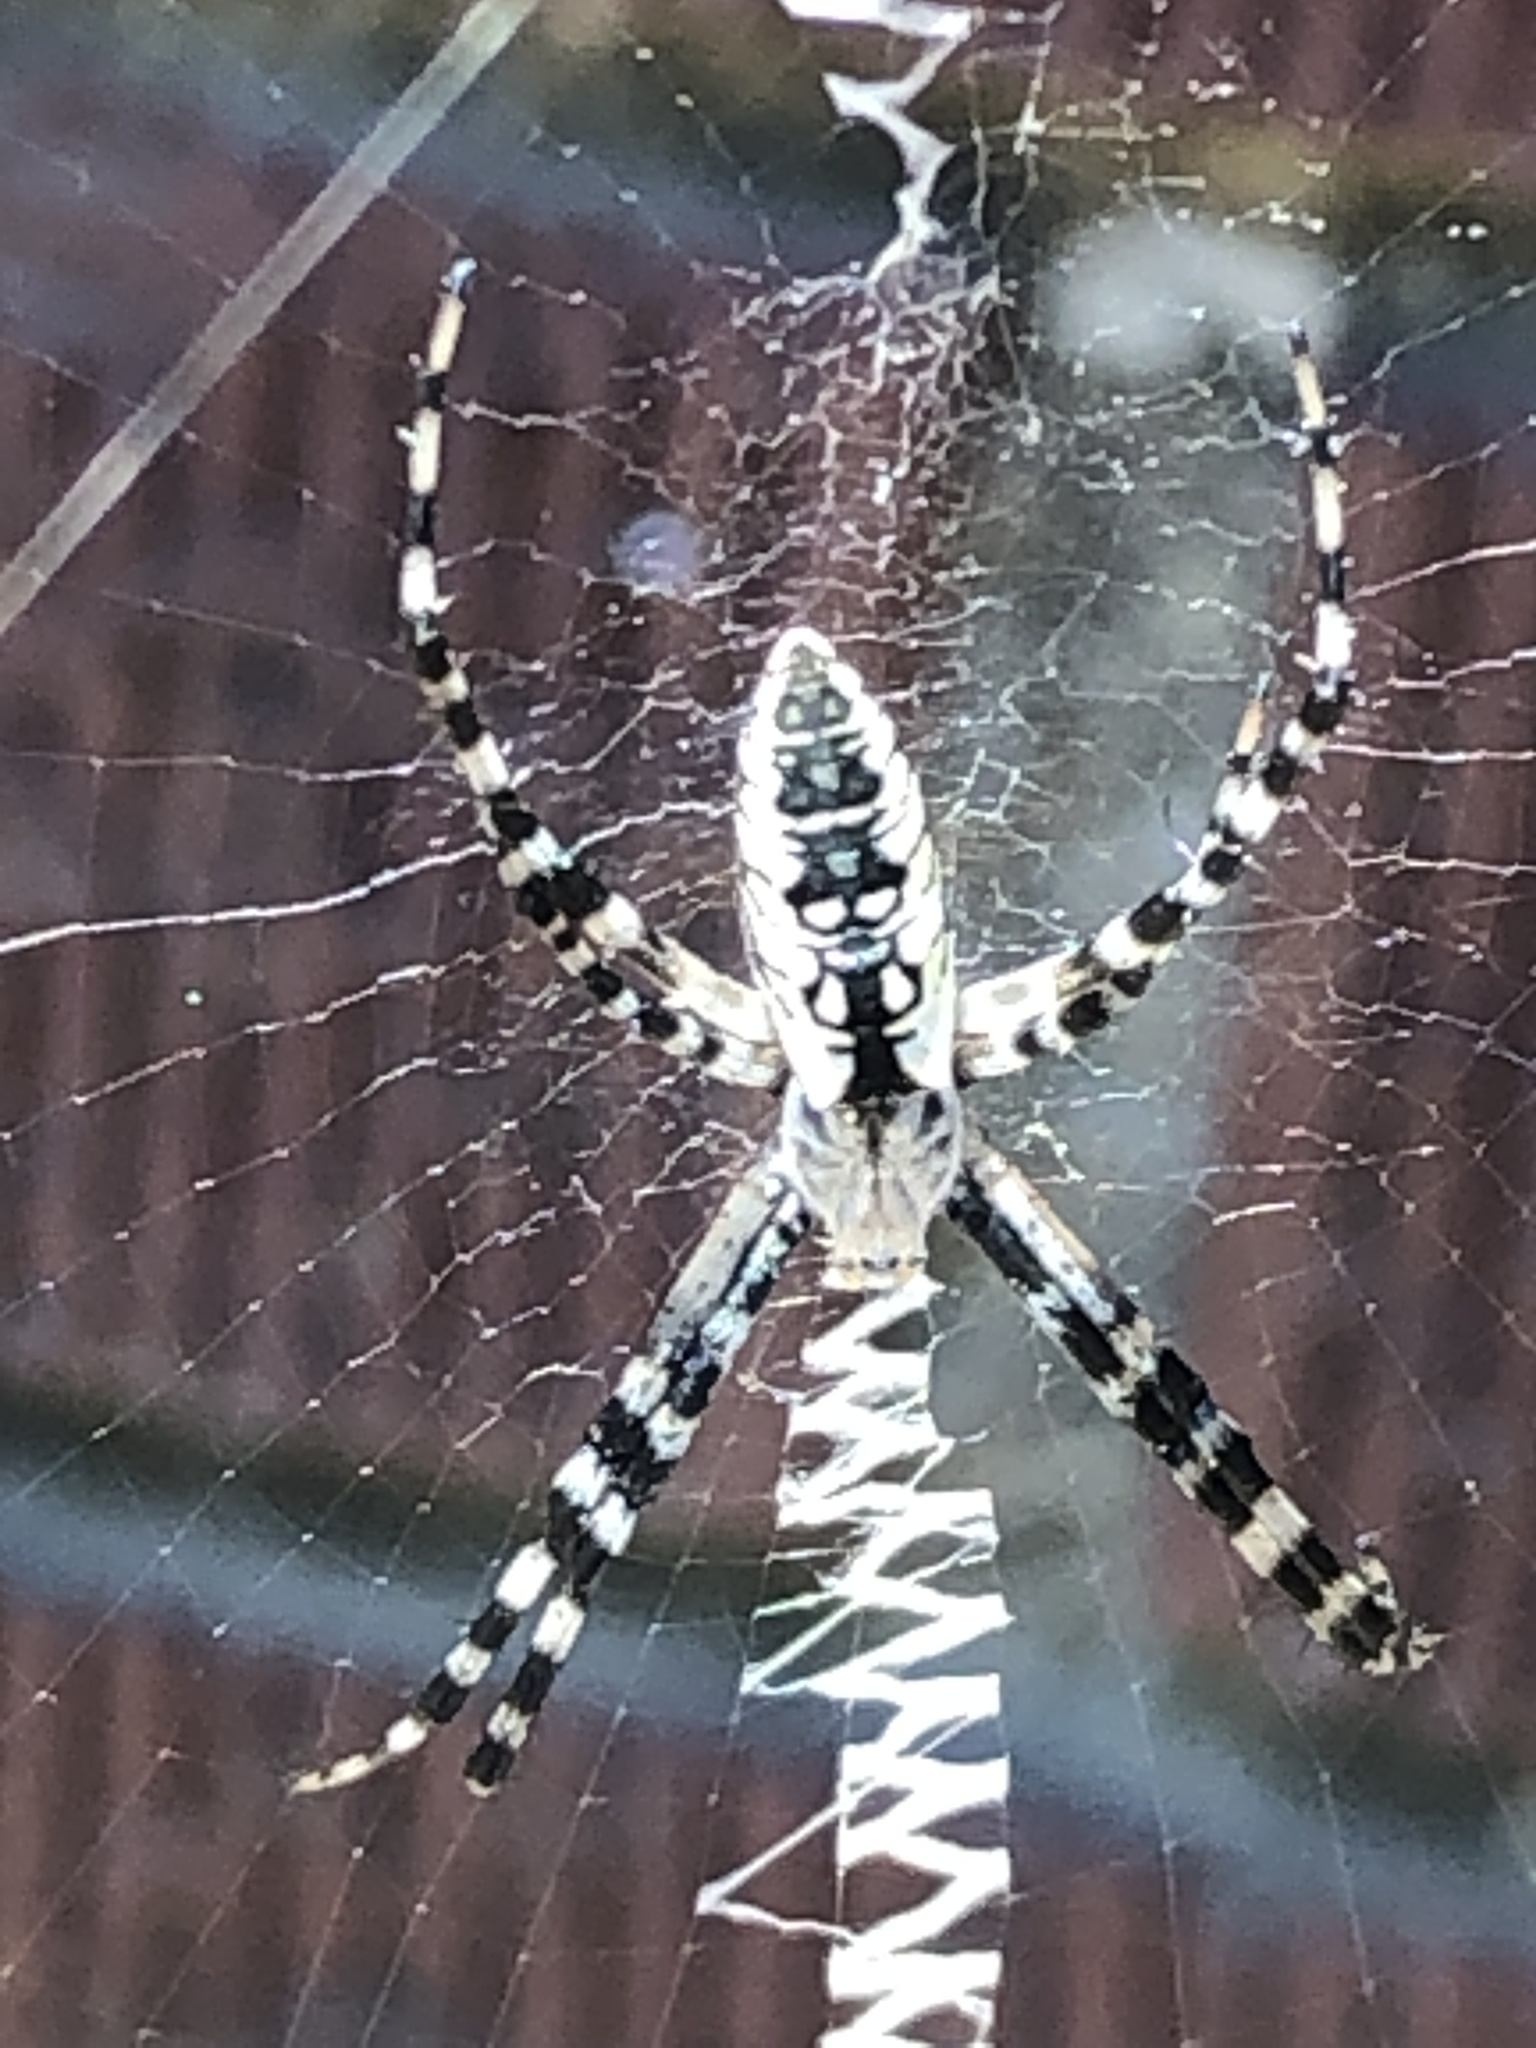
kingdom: Animalia
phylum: Arthropoda
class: Arachnida
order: Araneae
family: Araneidae
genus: Argiope
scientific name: Argiope aurantia
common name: Orb weavers
